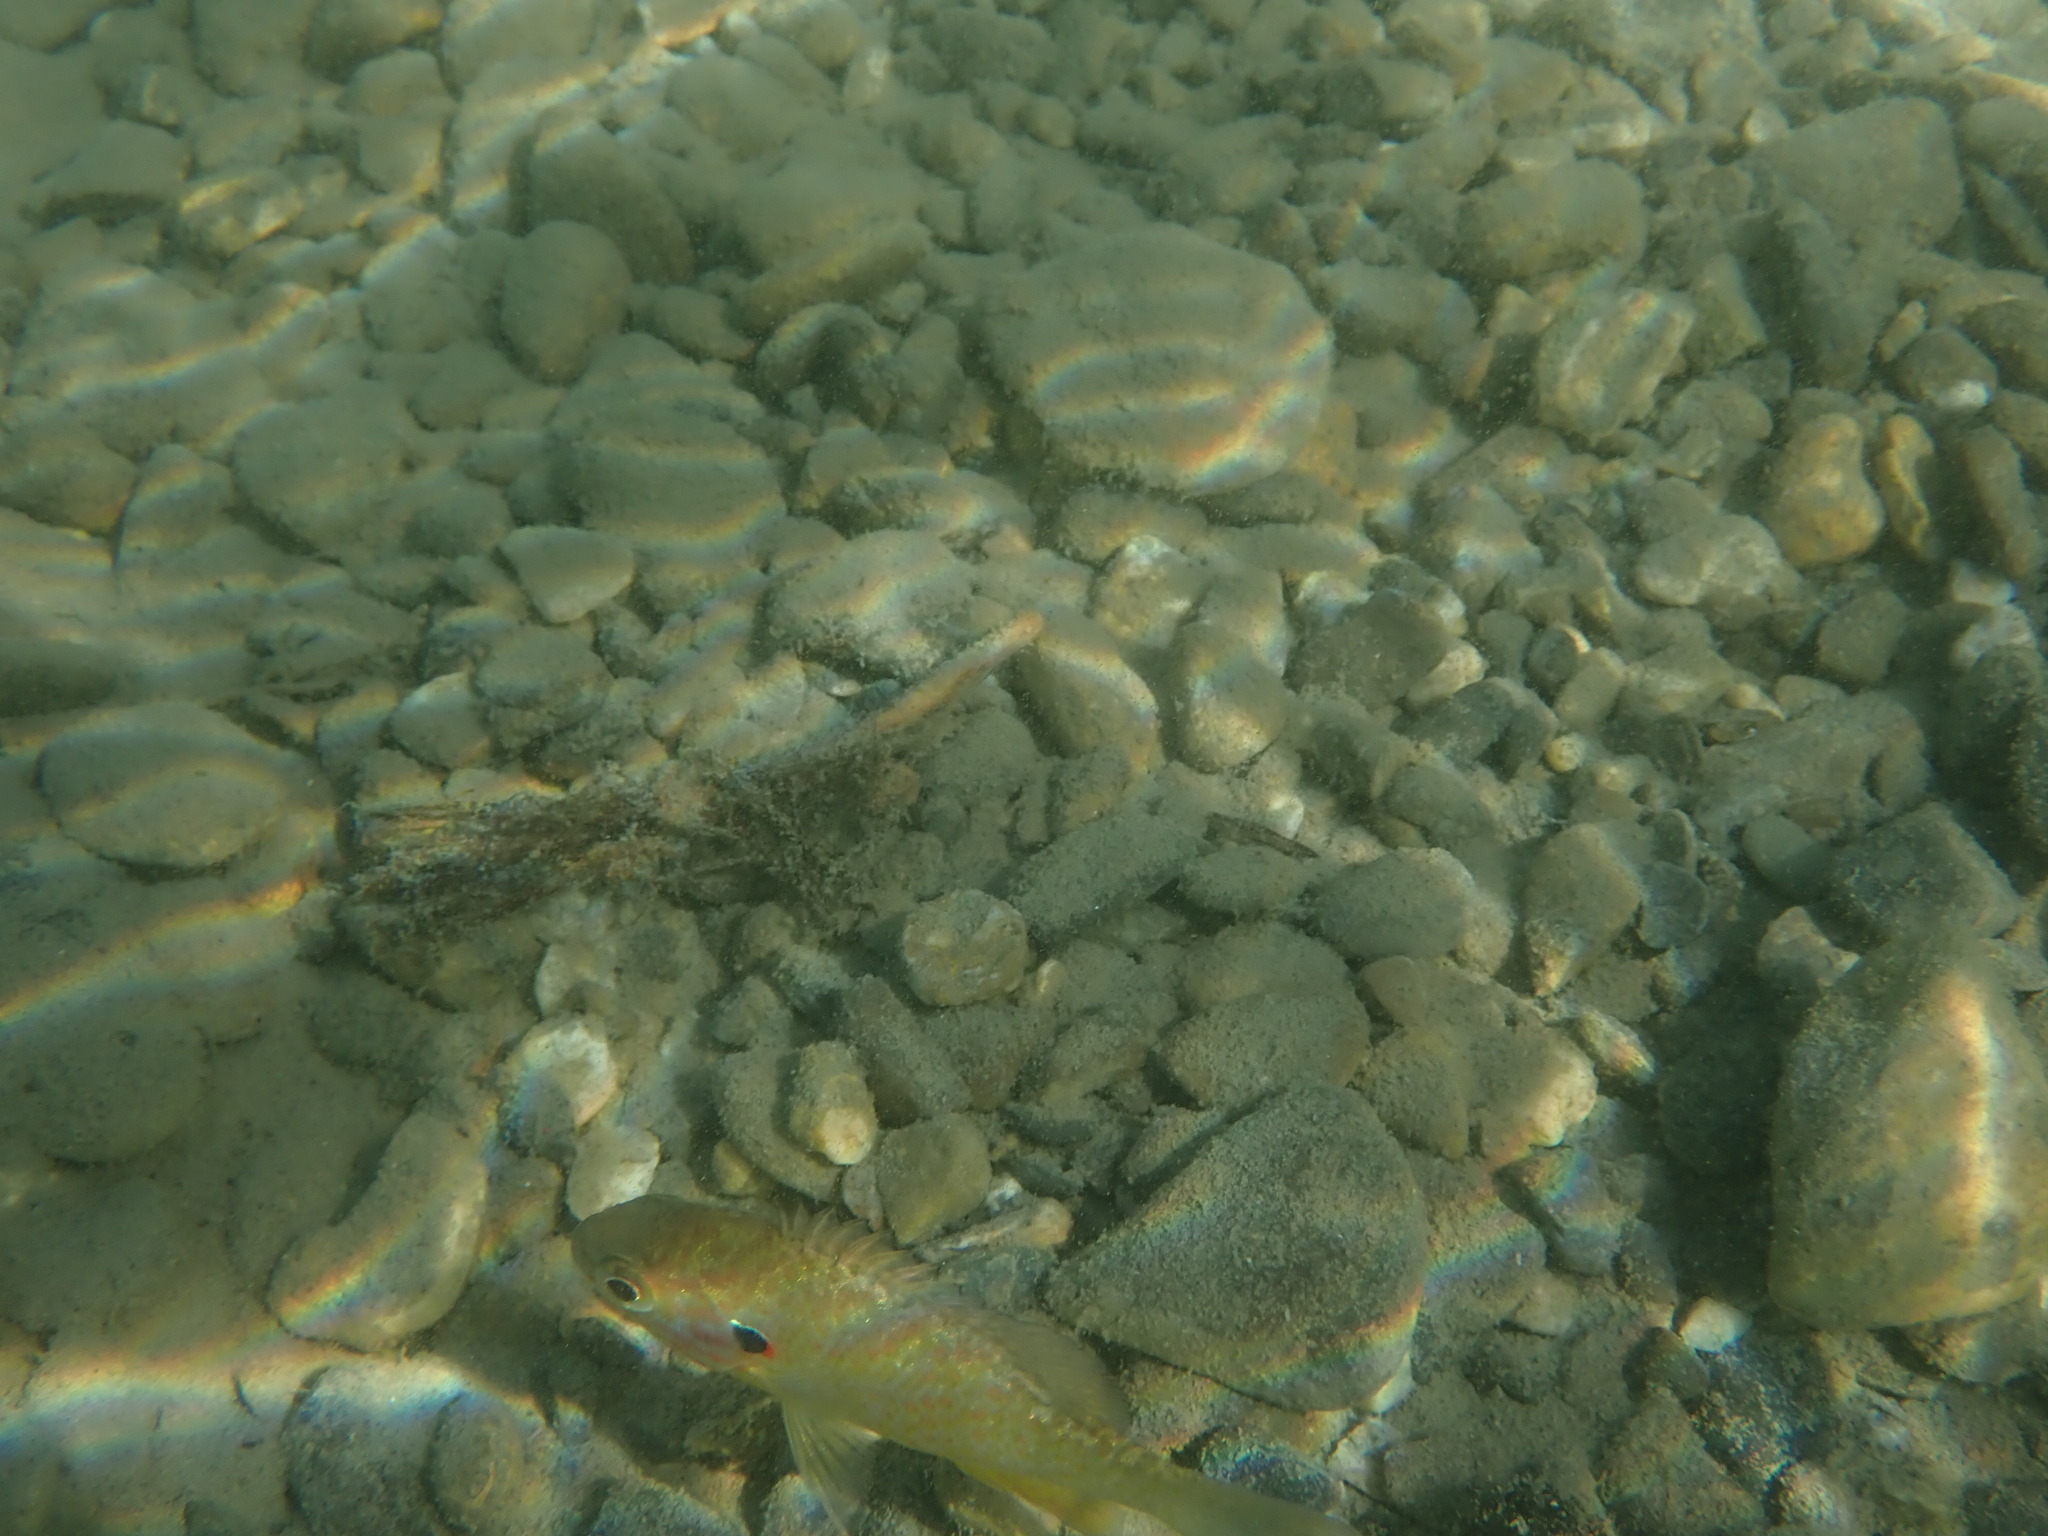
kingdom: Animalia
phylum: Chordata
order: Perciformes
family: Centrarchidae
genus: Lepomis
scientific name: Lepomis gibbosus
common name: Pumpkinseed
